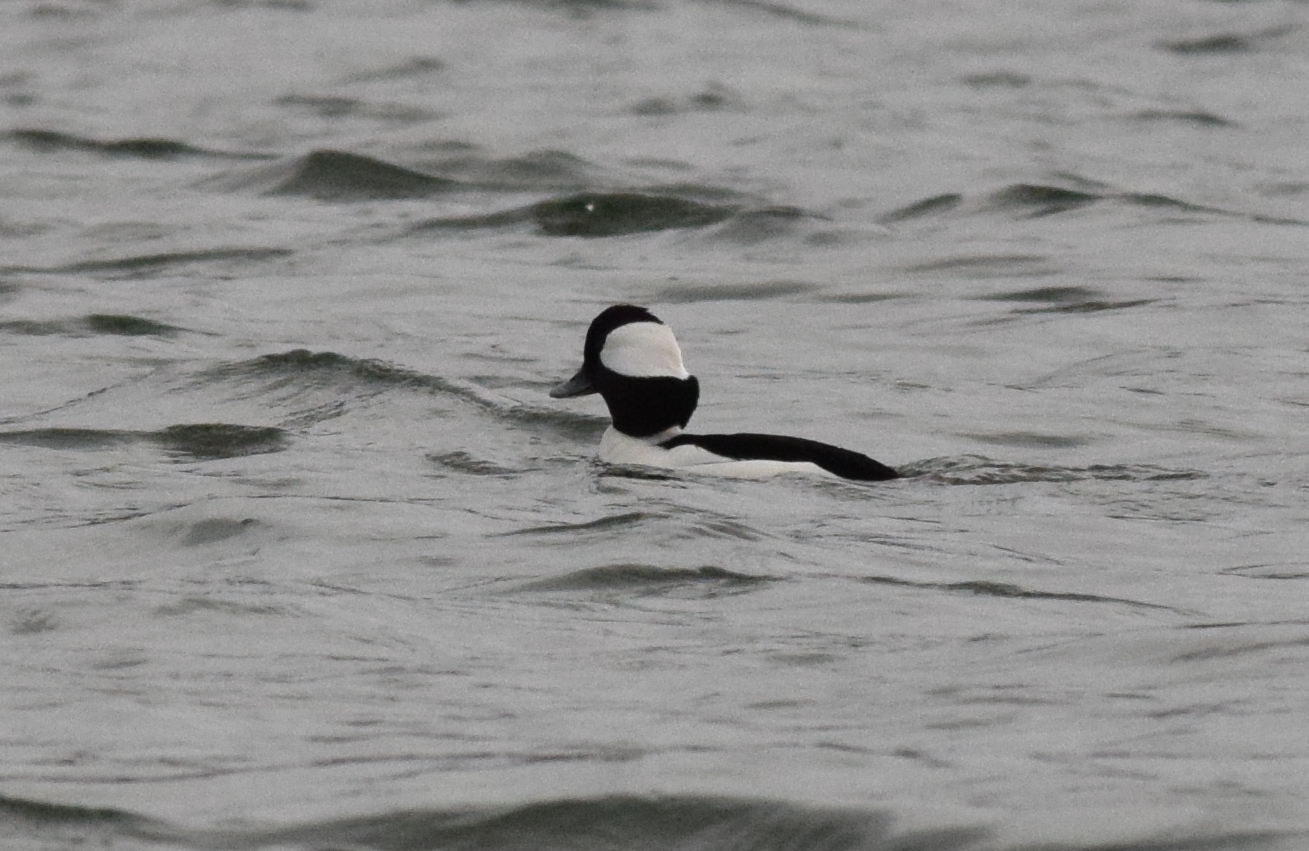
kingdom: Animalia
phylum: Chordata
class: Aves
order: Anseriformes
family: Anatidae
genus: Bucephala
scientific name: Bucephala albeola
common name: Bufflehead
